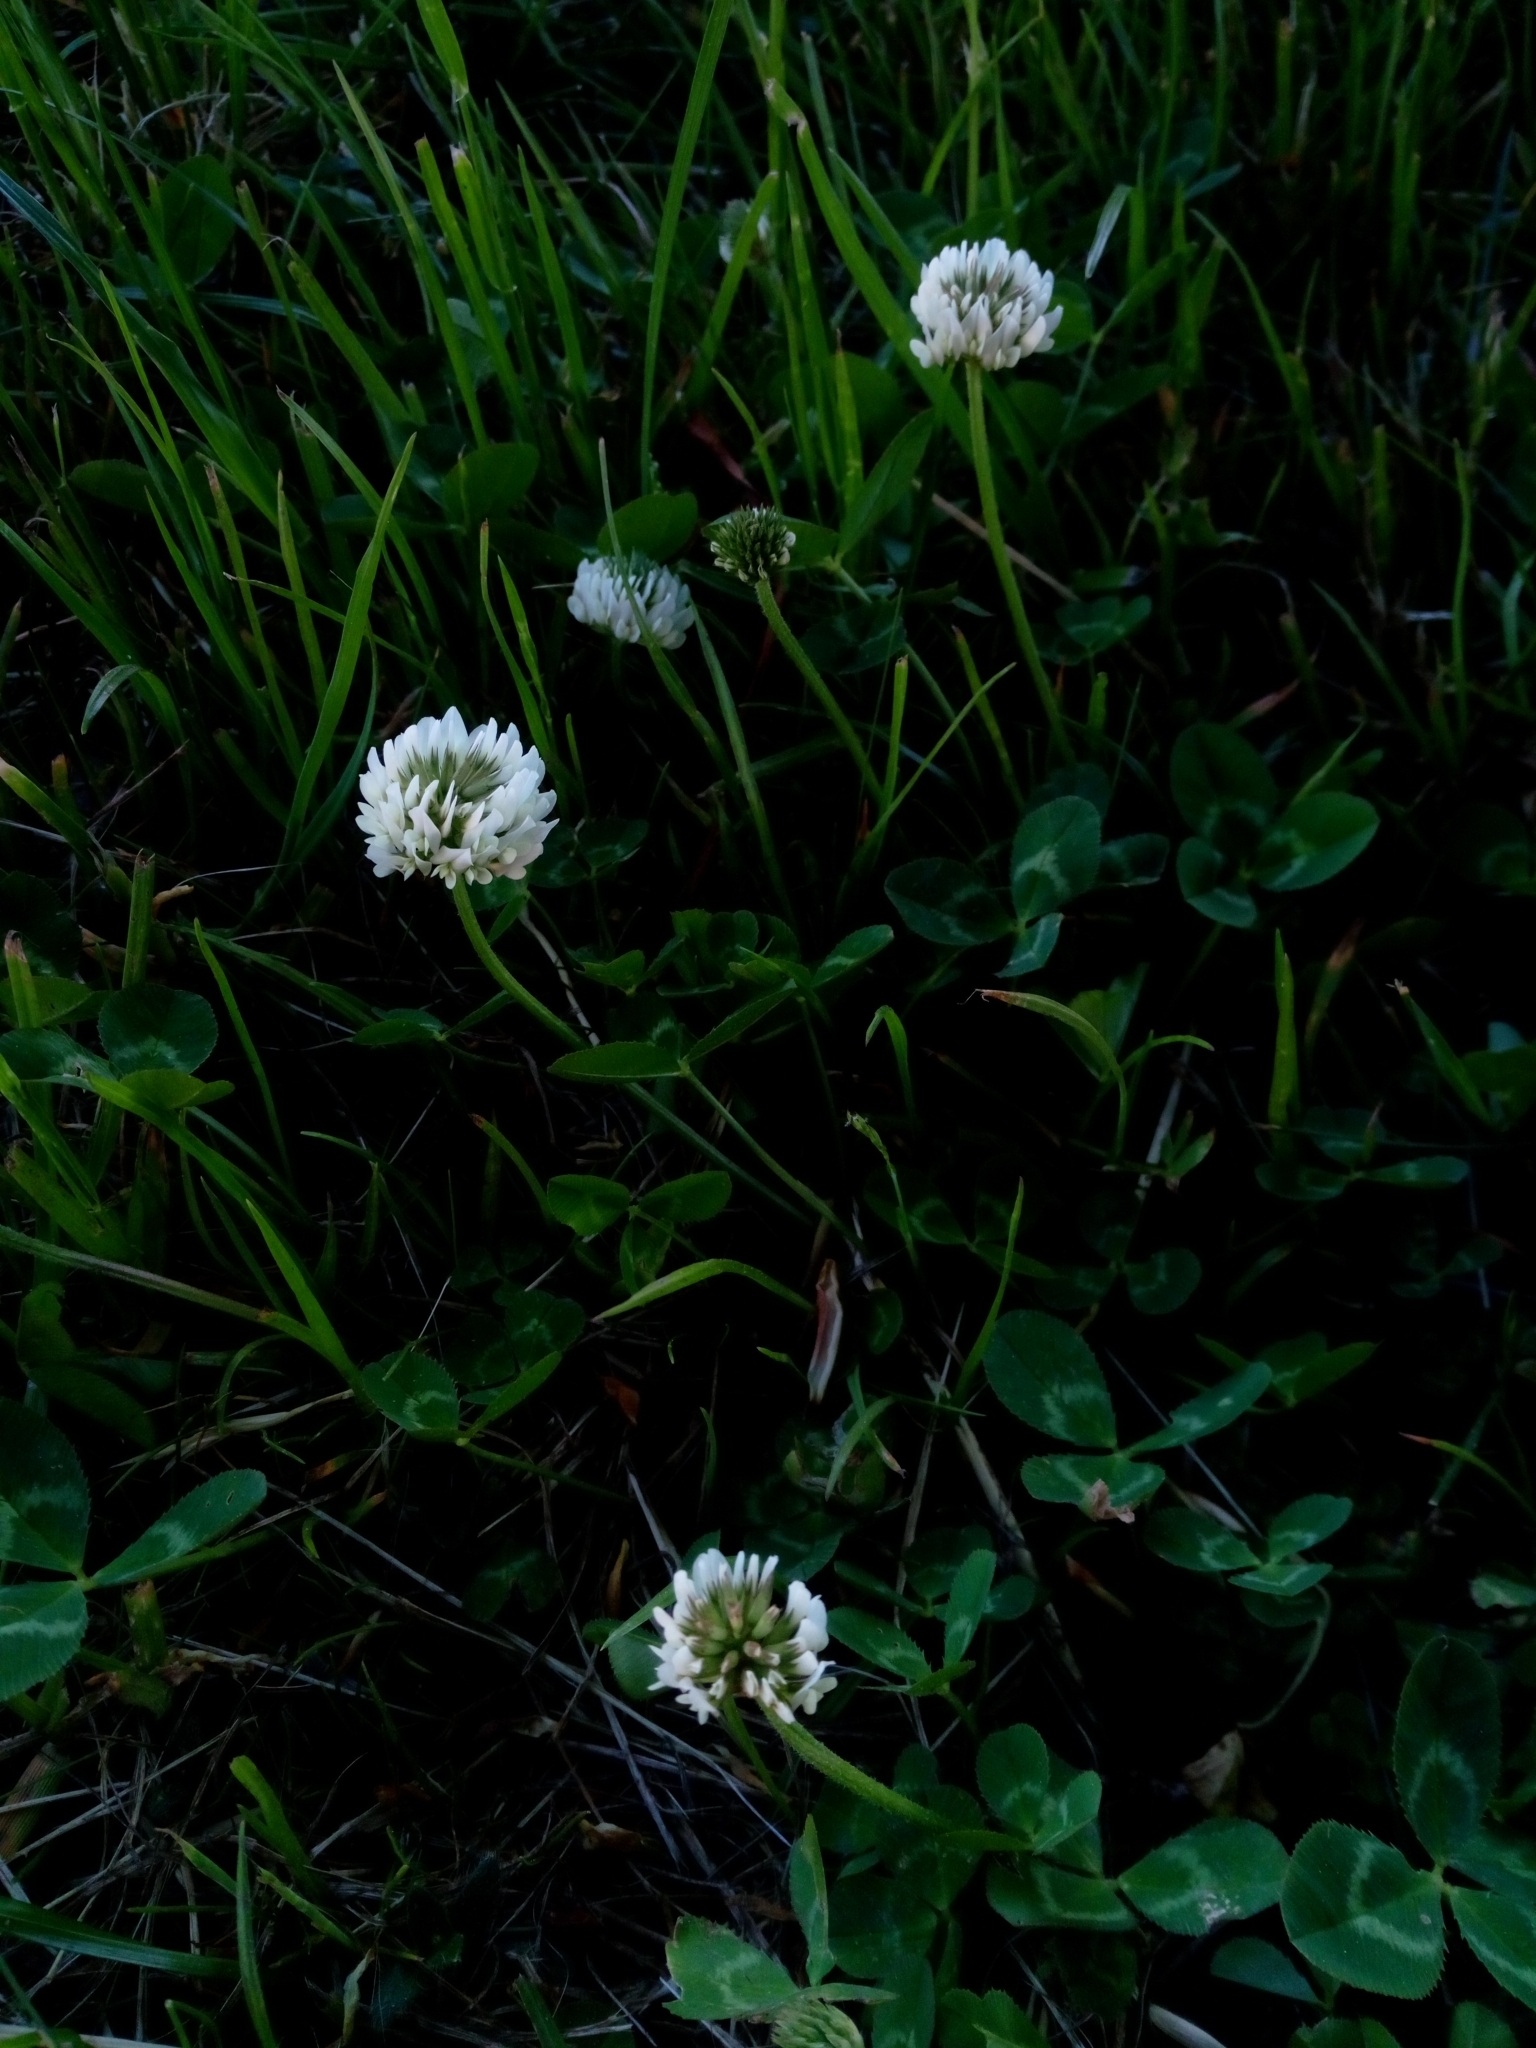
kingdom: Plantae
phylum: Tracheophyta
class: Magnoliopsida
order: Fabales
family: Fabaceae
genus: Trifolium
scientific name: Trifolium repens
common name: White clover
